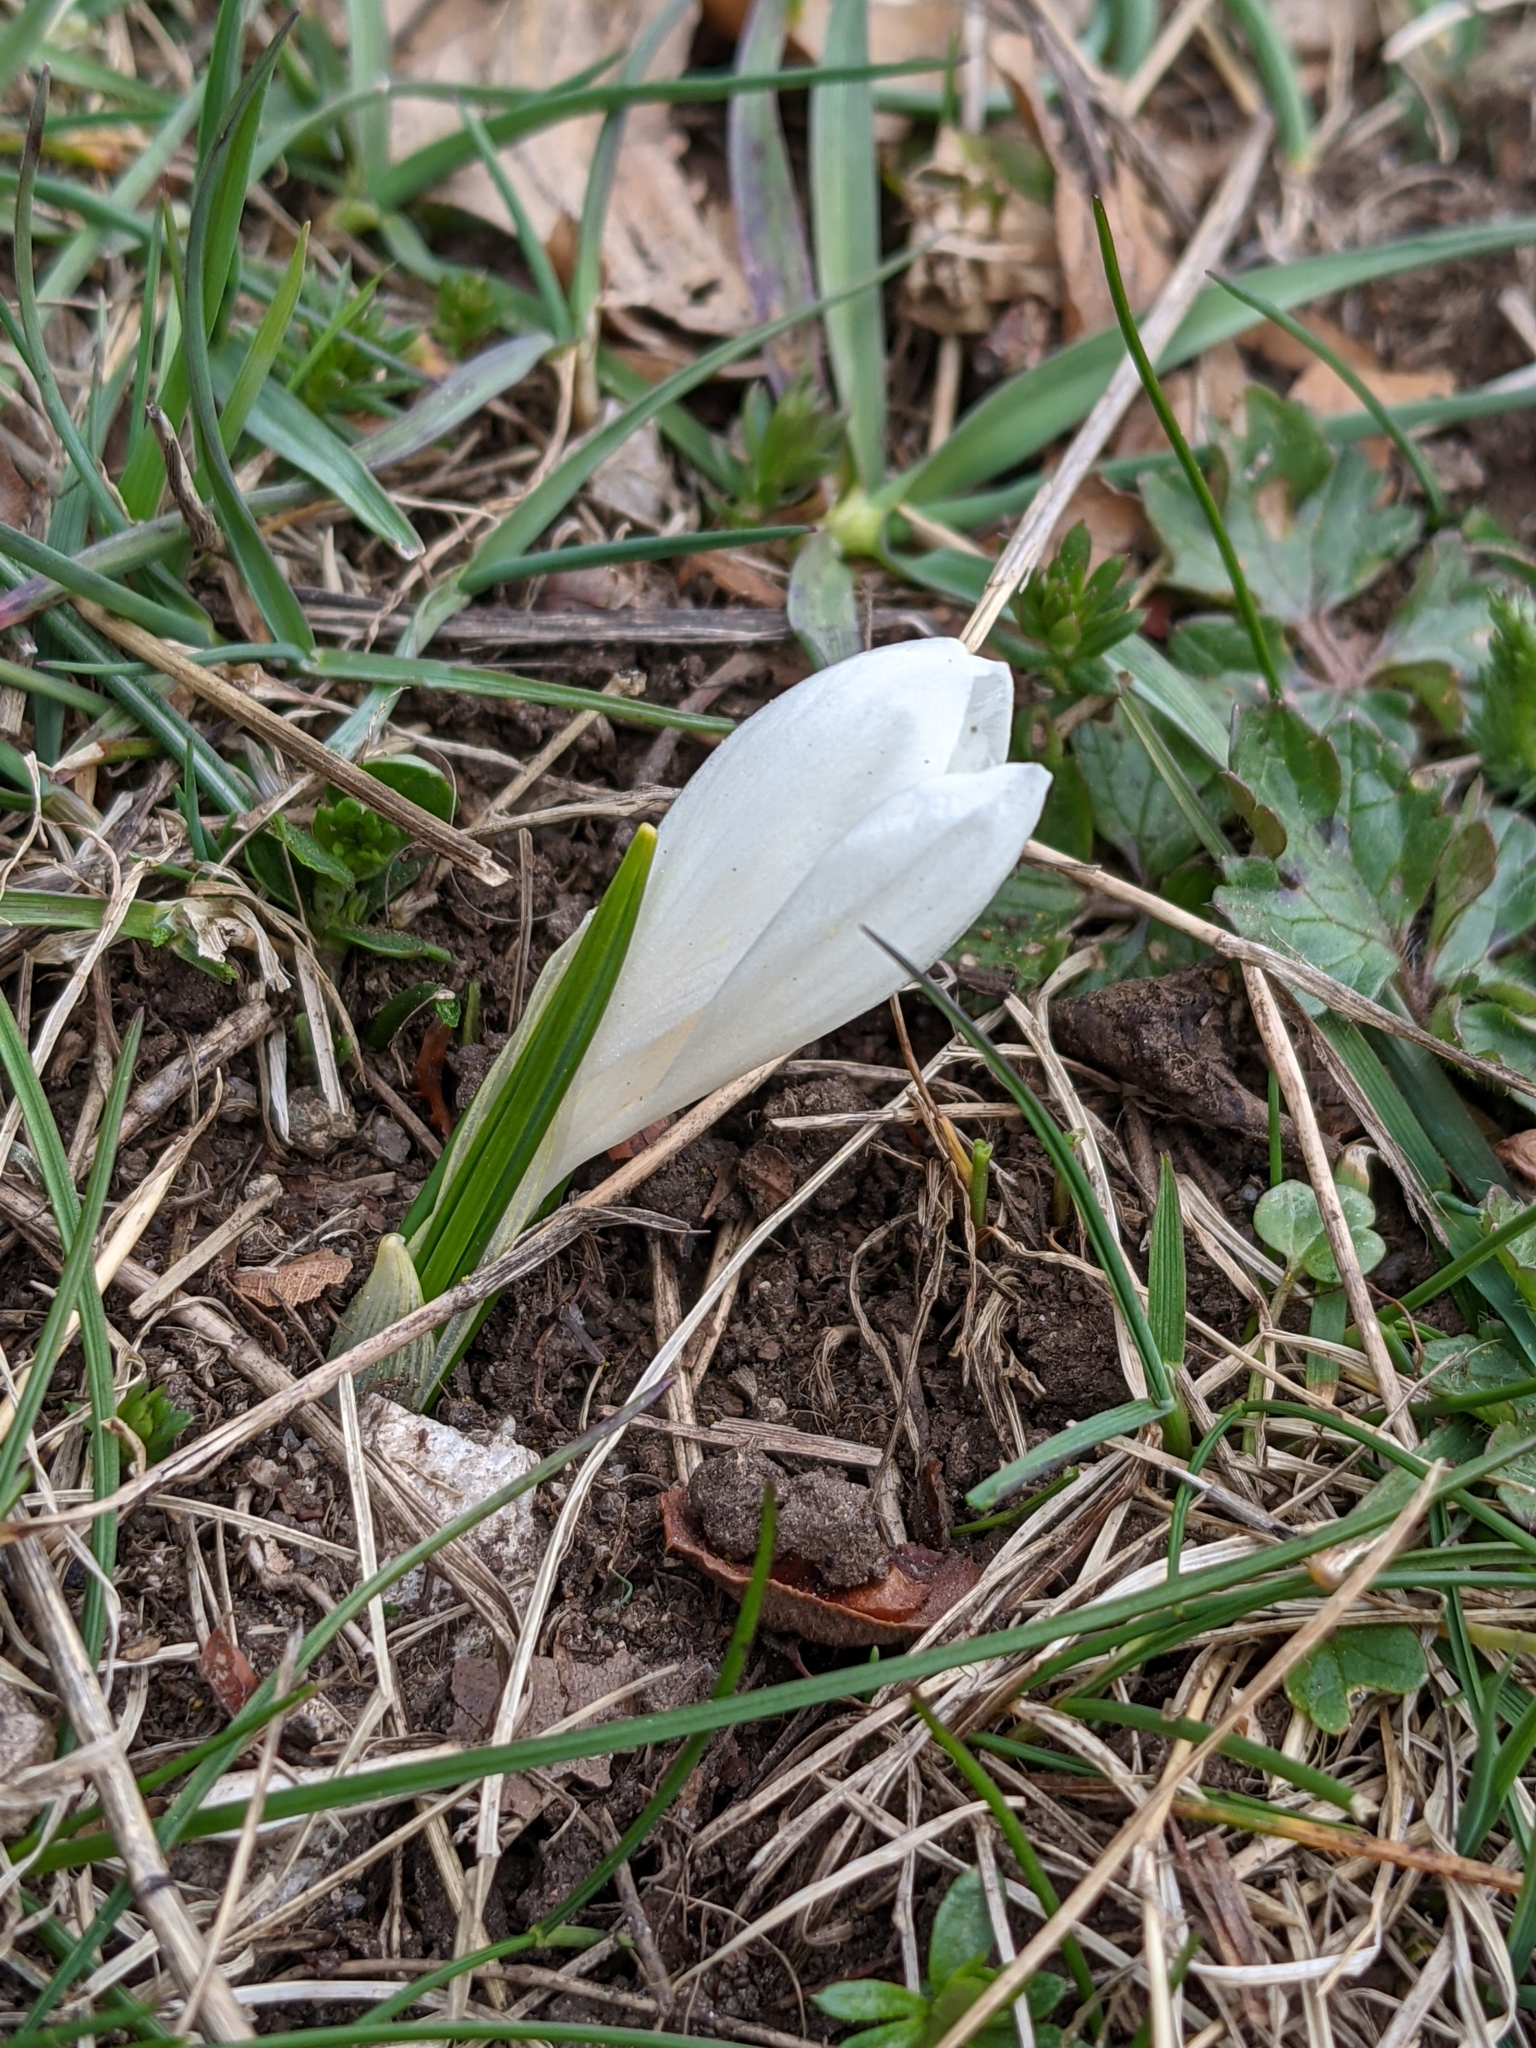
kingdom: Plantae
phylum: Tracheophyta
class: Liliopsida
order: Asparagales
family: Iridaceae
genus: Crocus
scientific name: Crocus vernus
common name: Spring crocus
